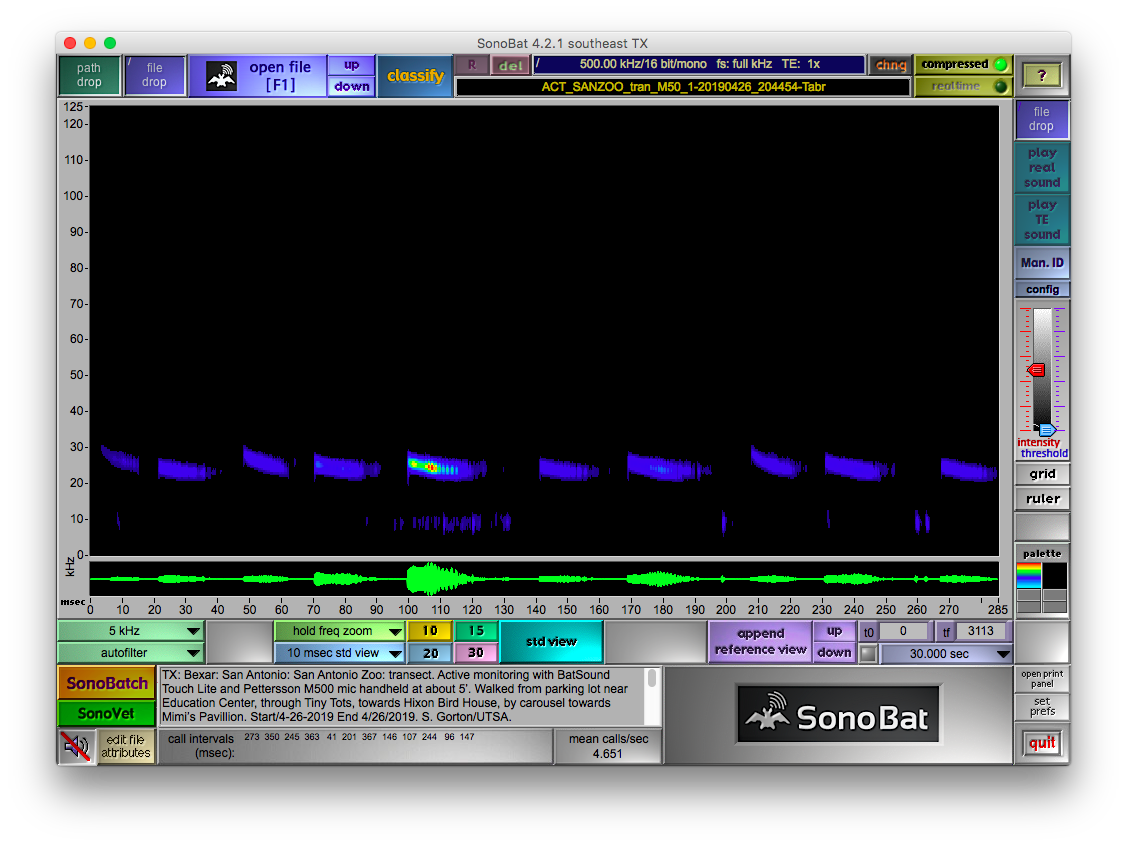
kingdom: Animalia
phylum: Chordata
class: Mammalia
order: Chiroptera
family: Molossidae
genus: Tadarida
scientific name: Tadarida brasiliensis
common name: Mexican free-tailed bat
